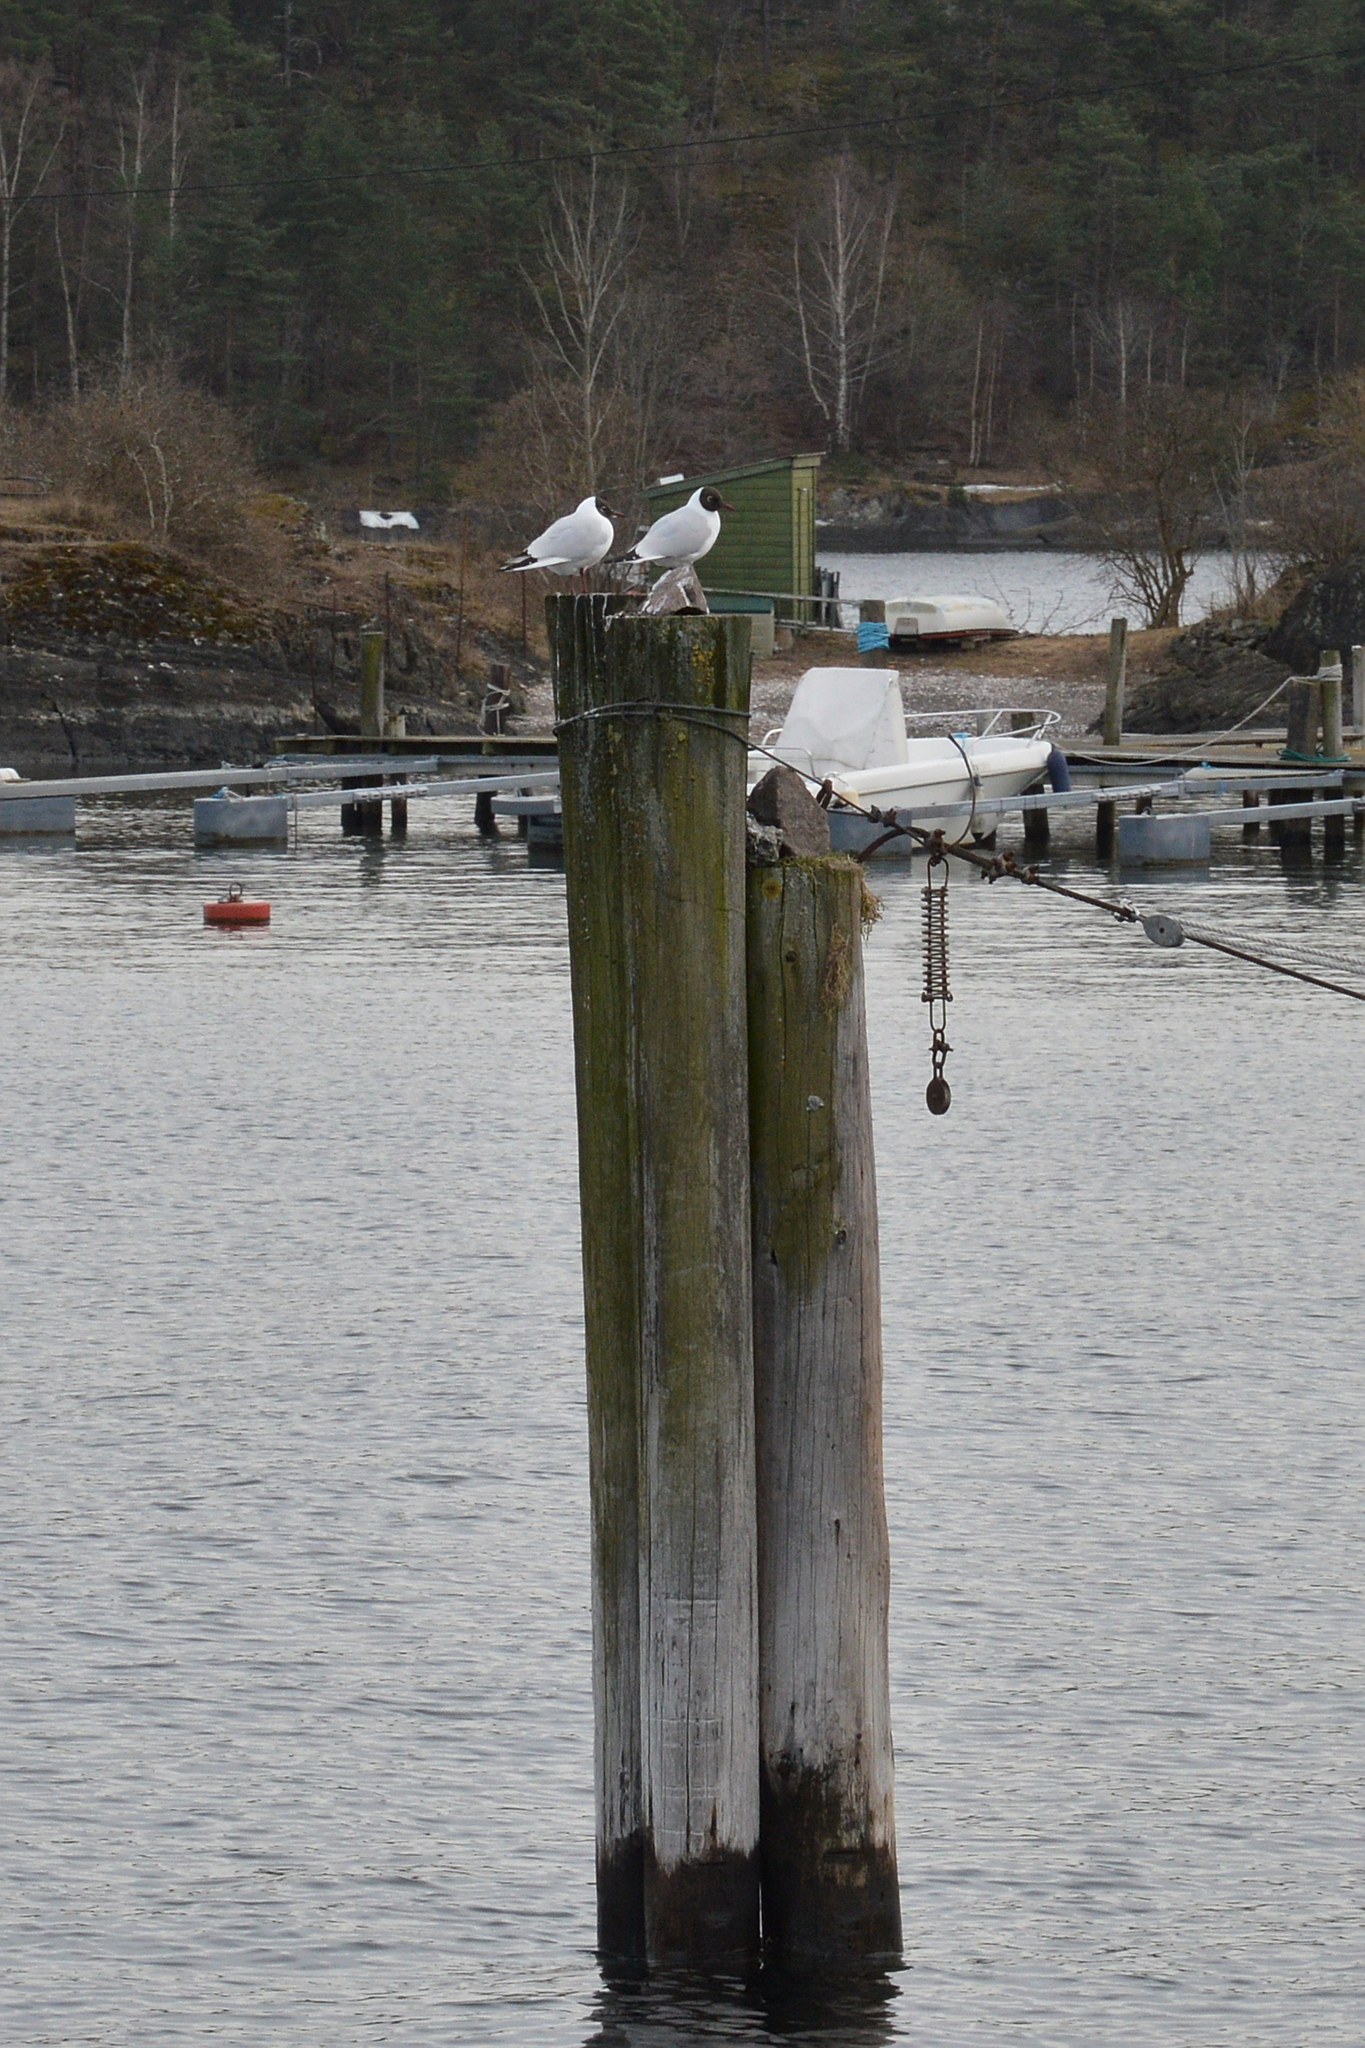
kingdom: Animalia
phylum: Chordata
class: Aves
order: Charadriiformes
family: Laridae
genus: Chroicocephalus
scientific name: Chroicocephalus ridibundus
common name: Black-headed gull
